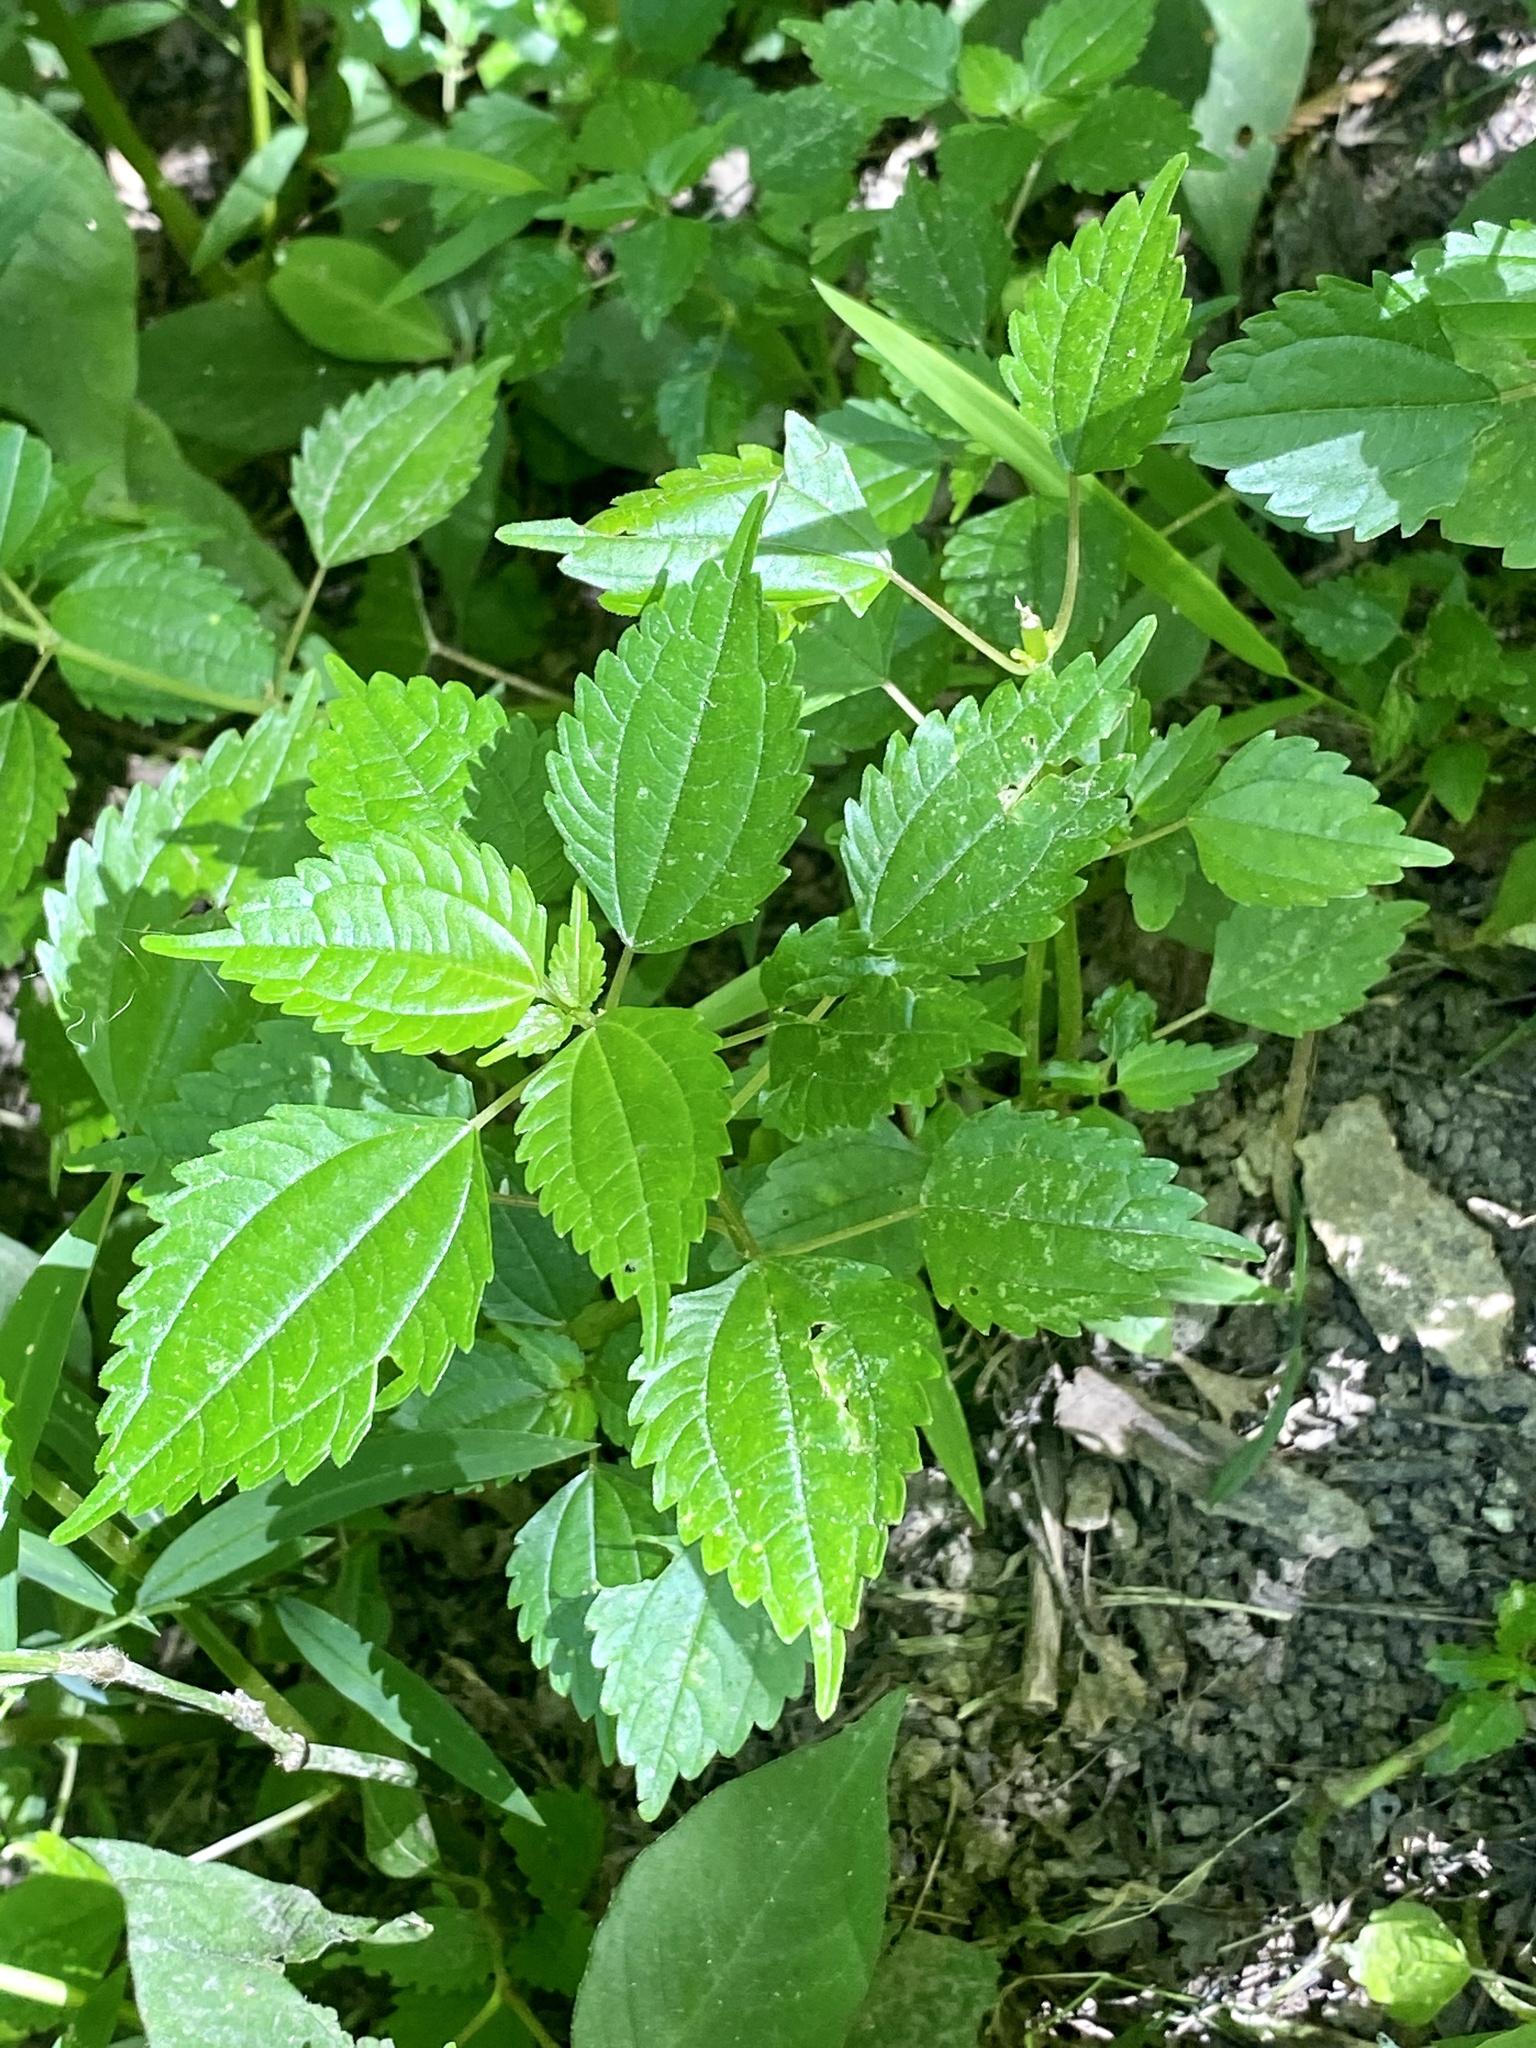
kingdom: Plantae
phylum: Tracheophyta
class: Magnoliopsida
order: Rosales
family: Urticaceae
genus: Pilea
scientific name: Pilea pumila
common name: Clearweed
